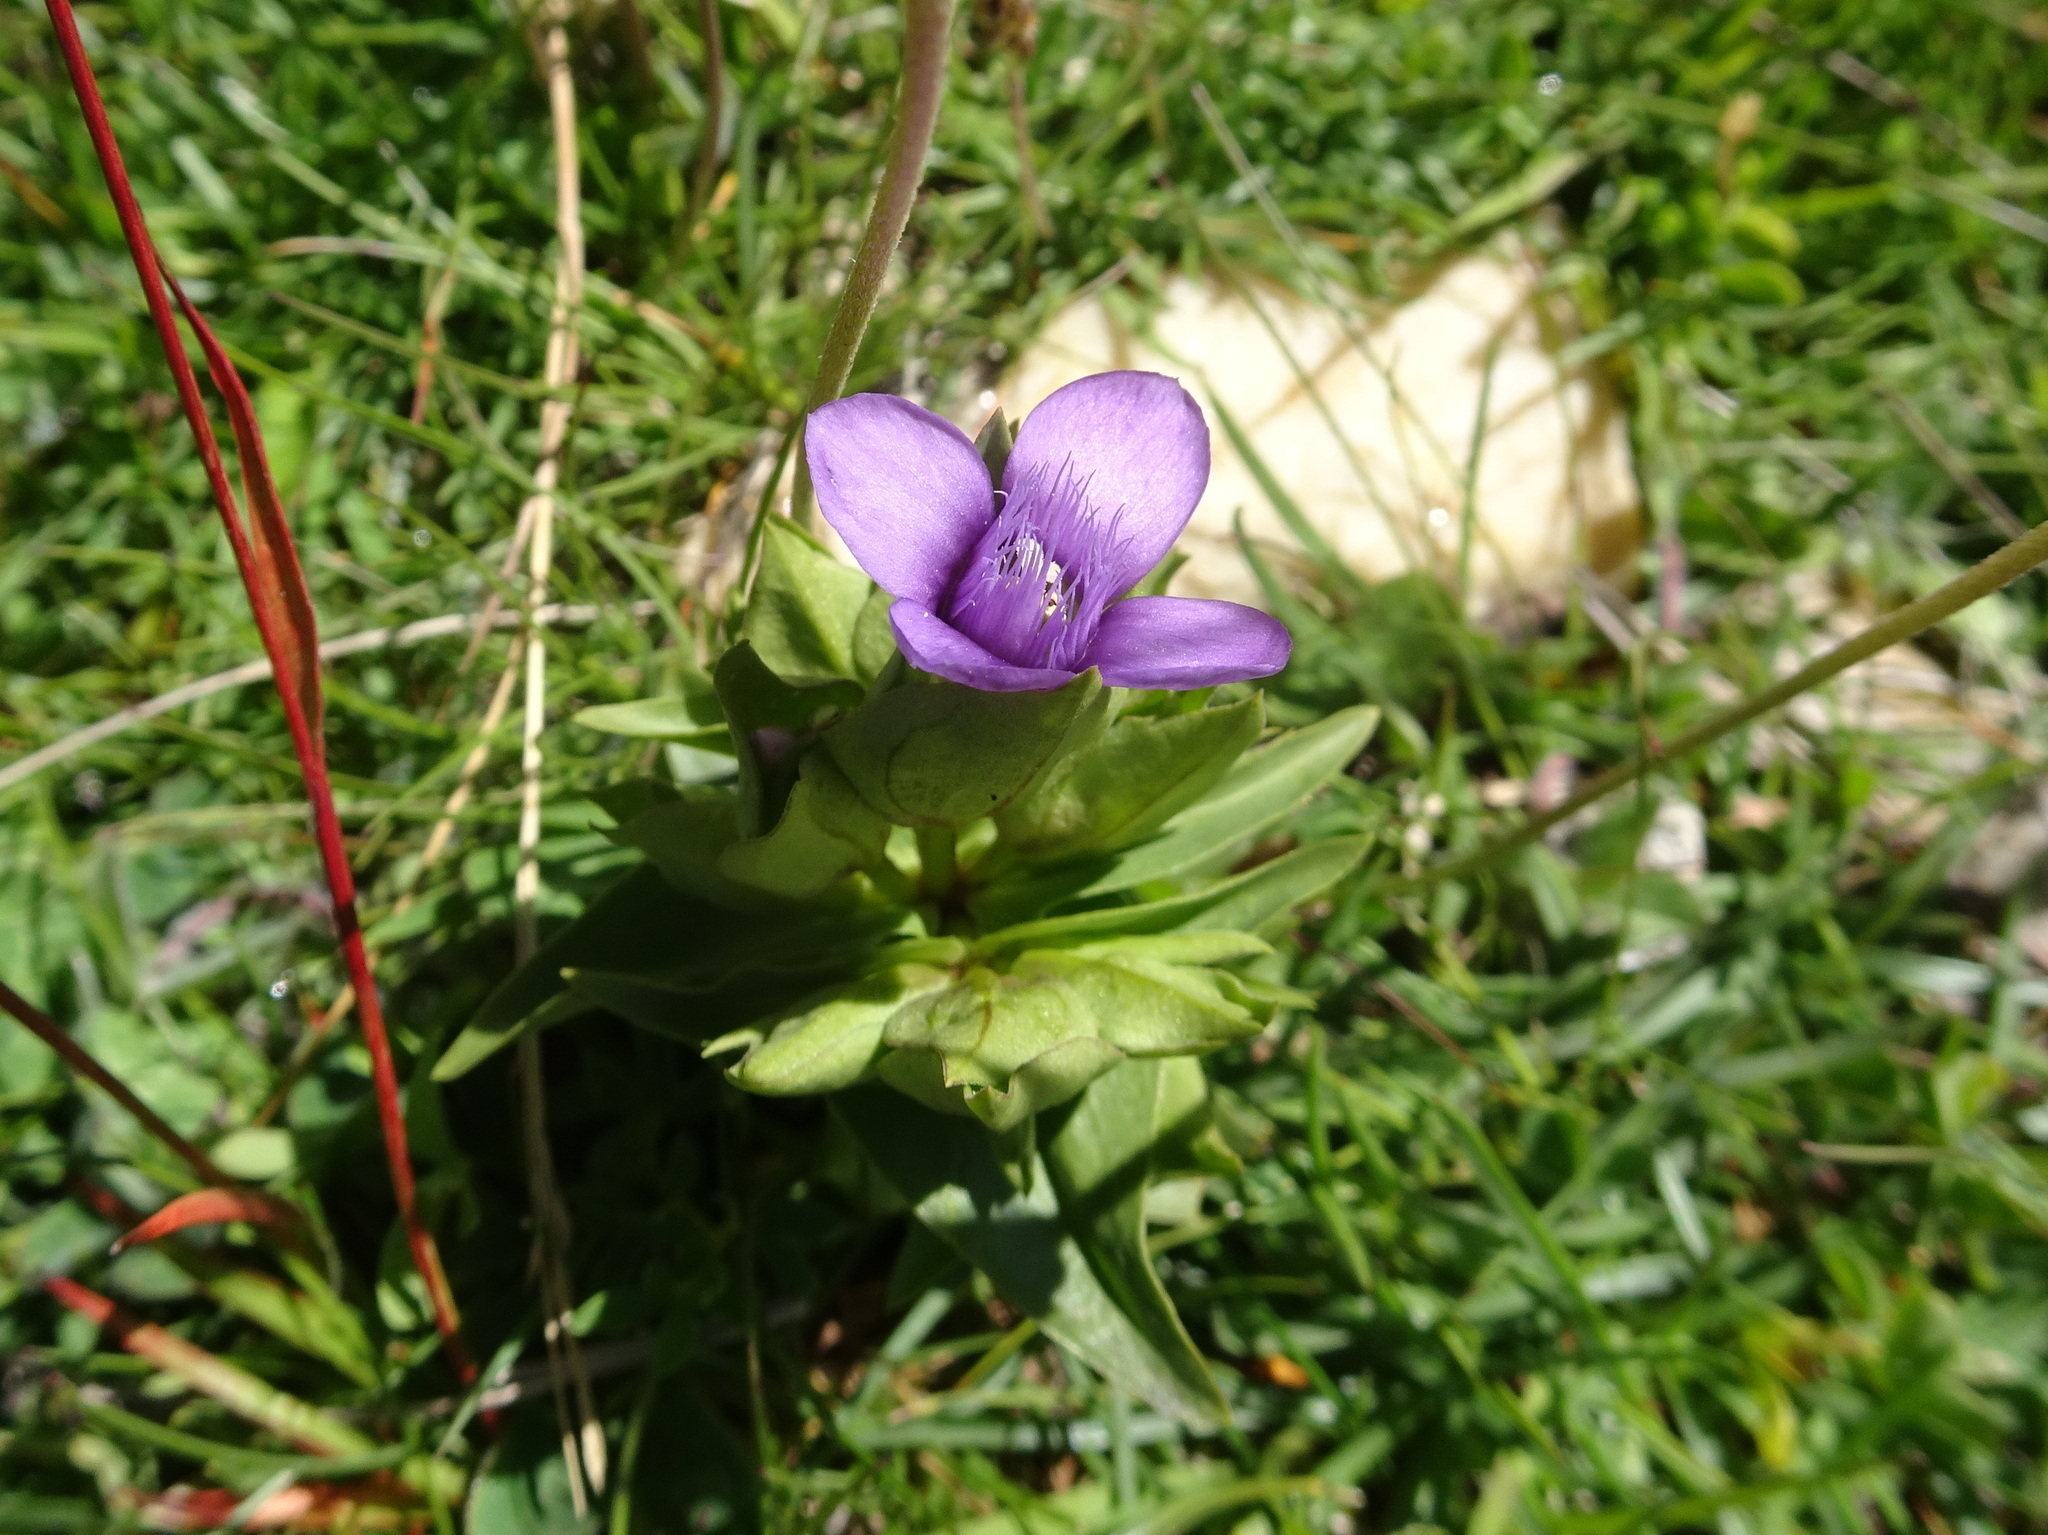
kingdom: Plantae
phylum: Tracheophyta
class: Magnoliopsida
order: Gentianales
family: Gentianaceae
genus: Gentianella
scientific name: Gentianella campestris
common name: Field gentian
